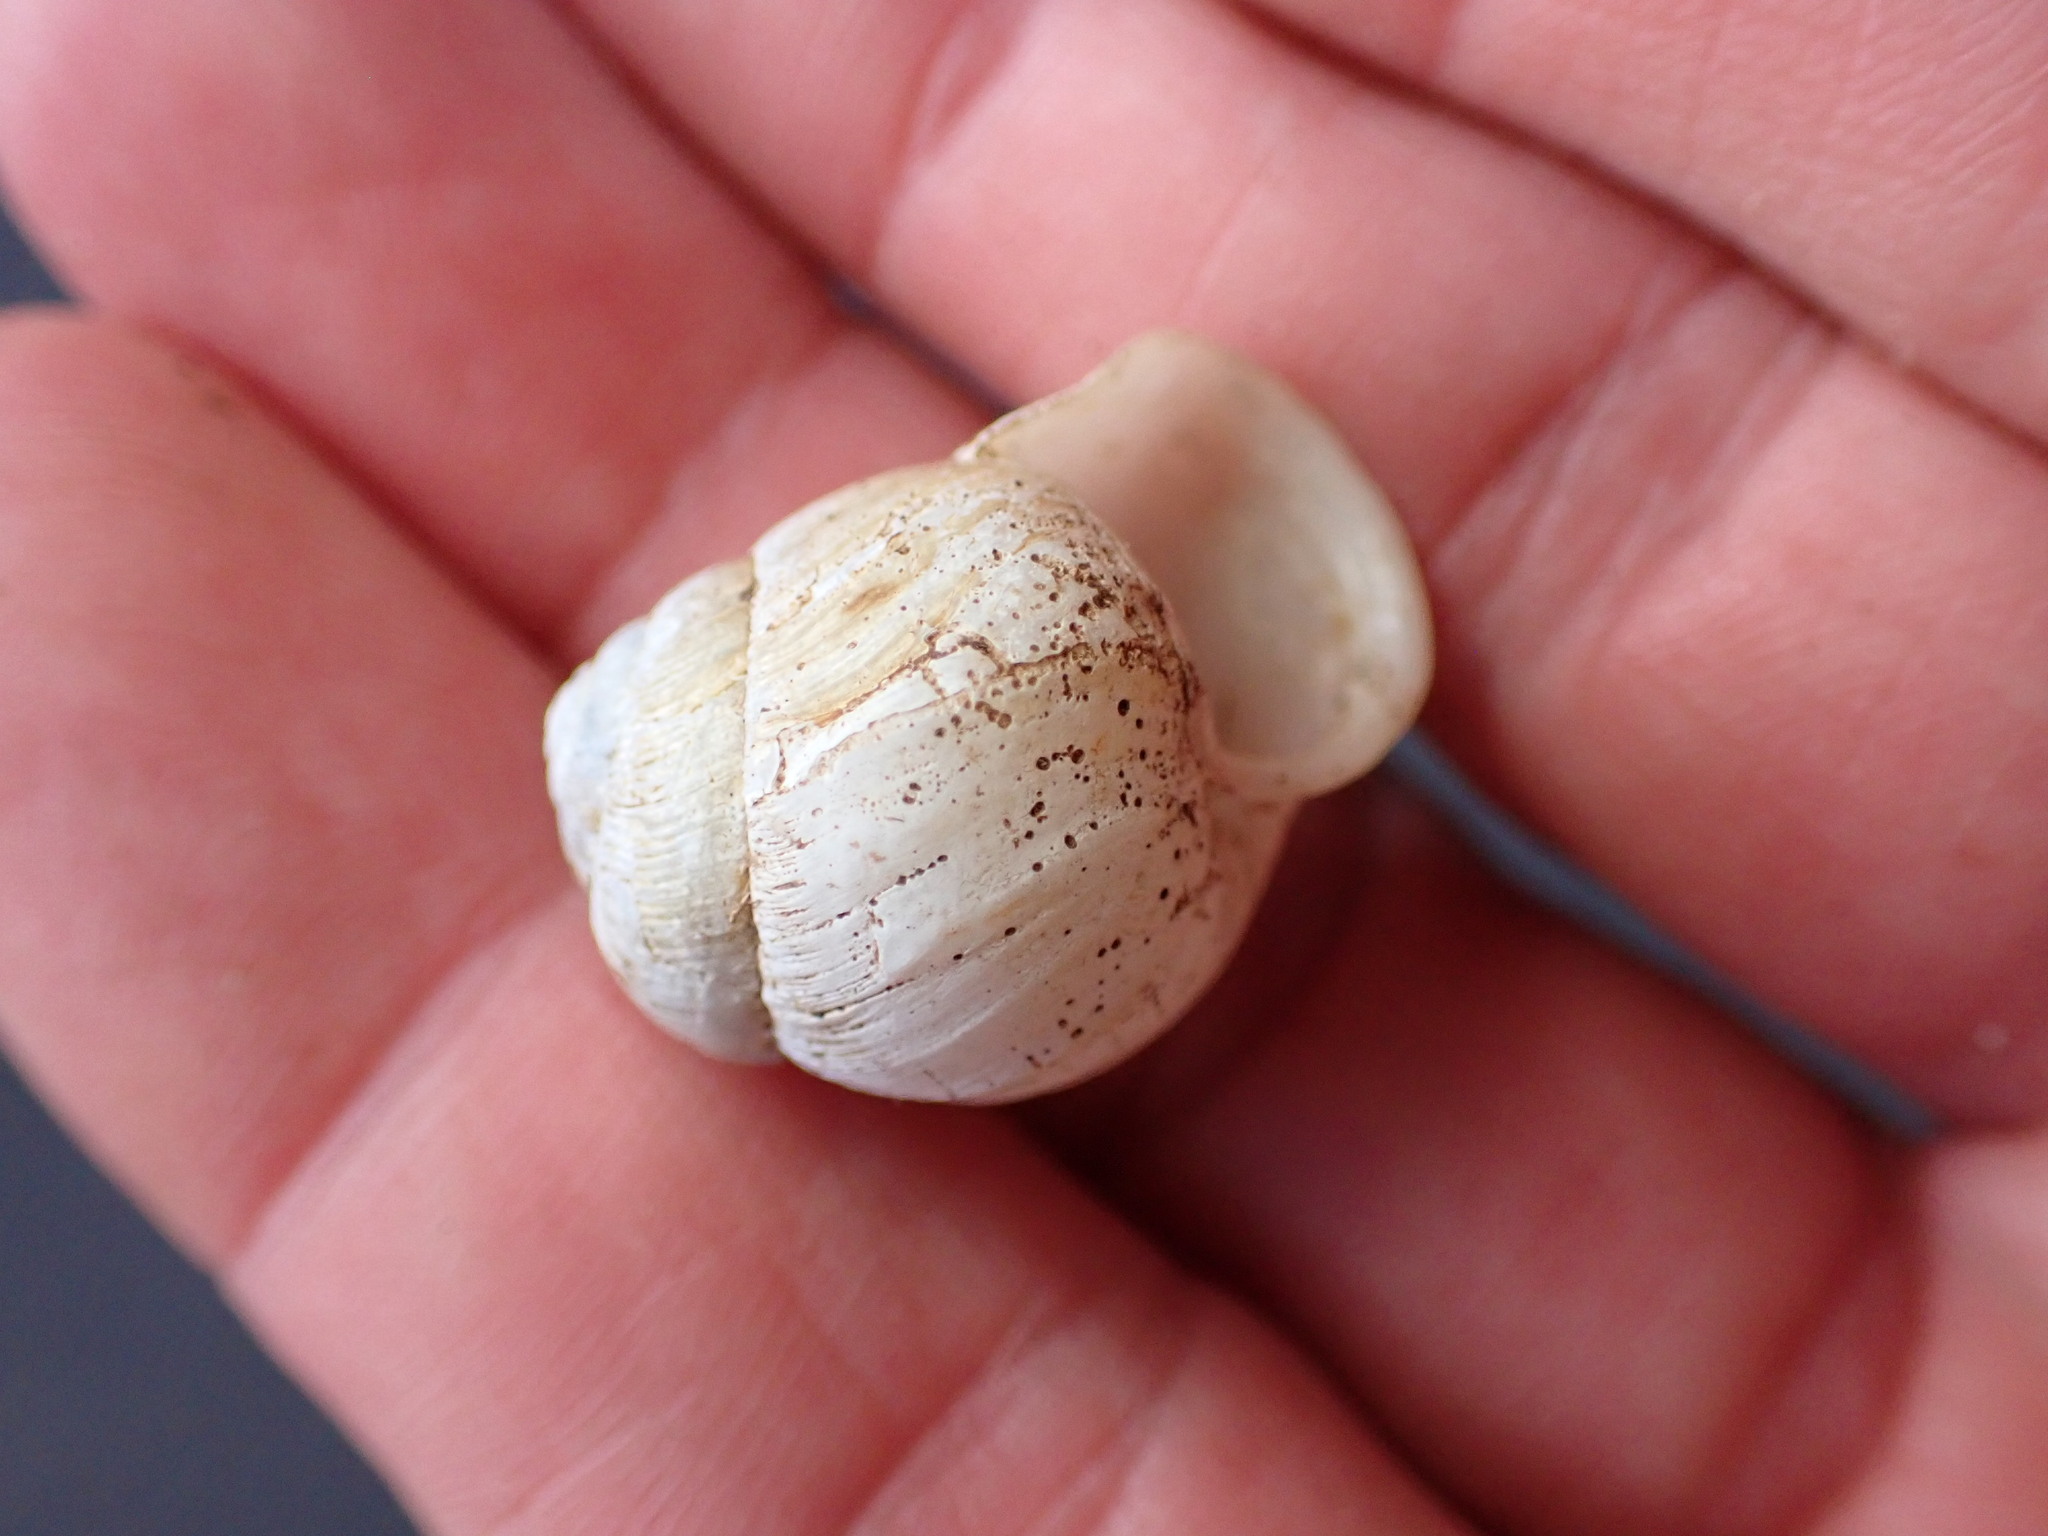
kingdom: Animalia
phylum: Mollusca
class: Gastropoda
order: Stylommatophora
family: Streptaxidae
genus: Tayloria
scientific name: Tayloria kibweziensis
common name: Snail
